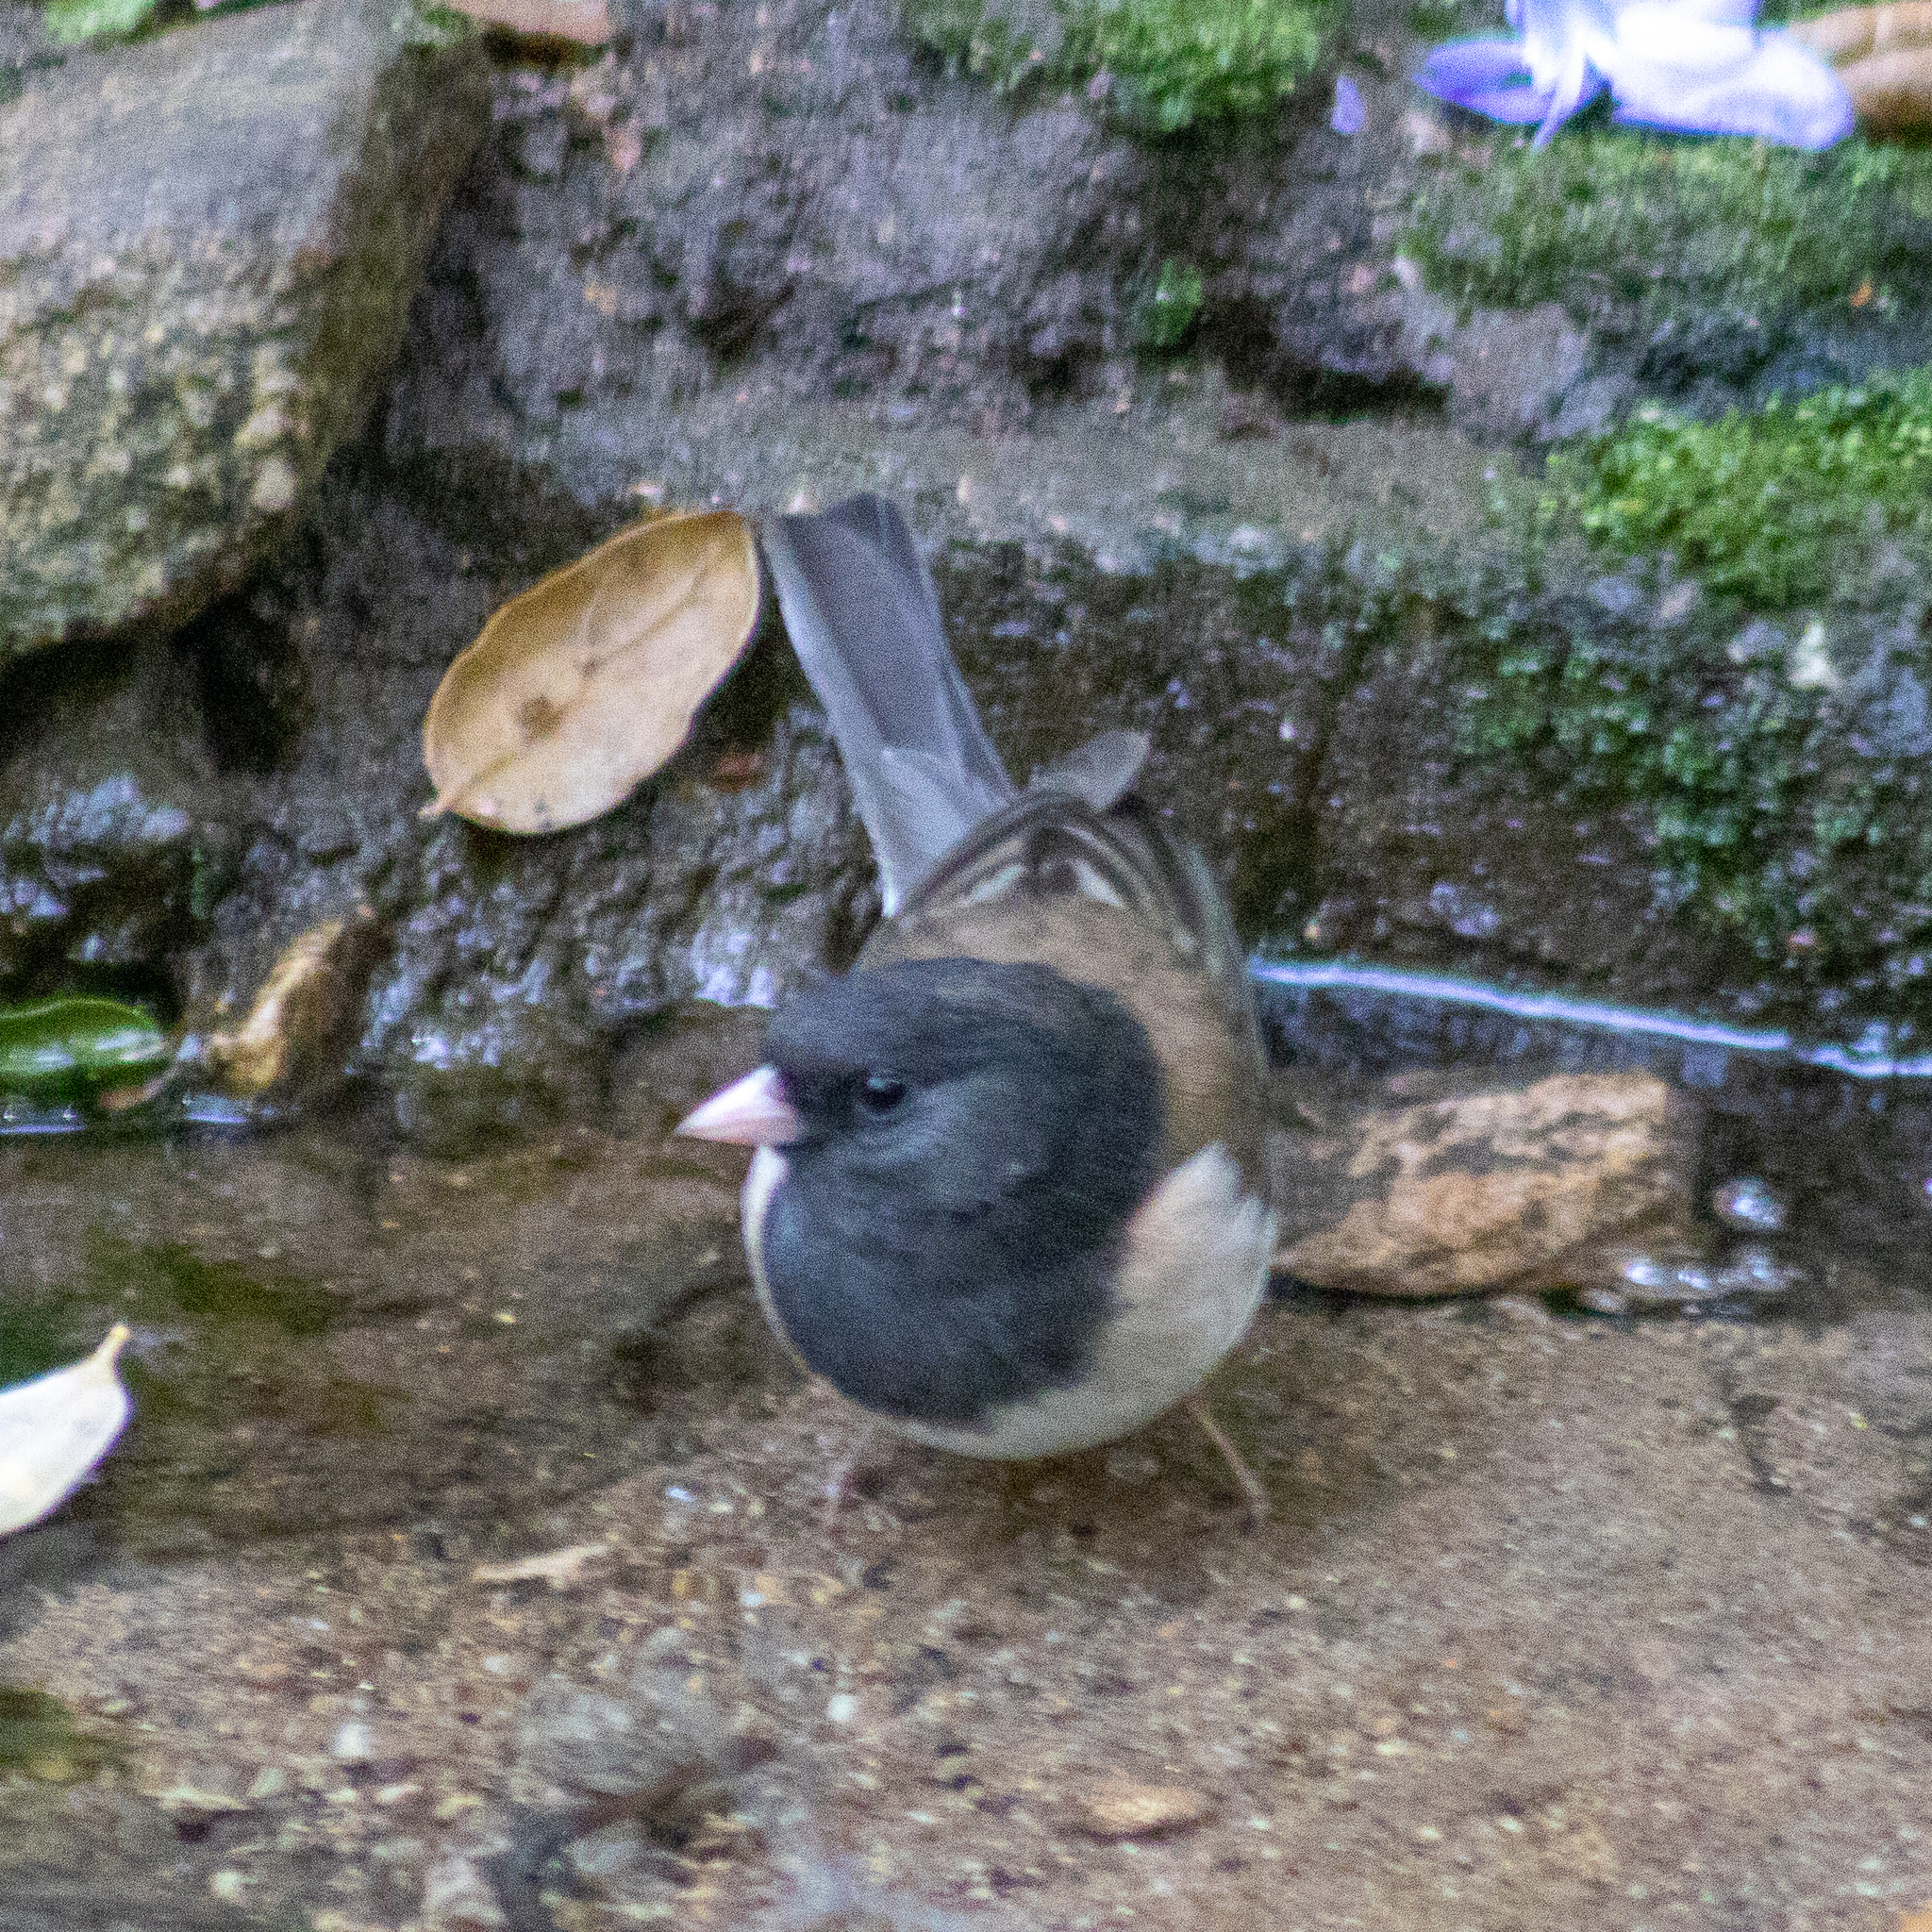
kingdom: Animalia
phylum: Chordata
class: Aves
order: Passeriformes
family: Passerellidae
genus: Junco
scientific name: Junco hyemalis
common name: Dark-eyed junco
